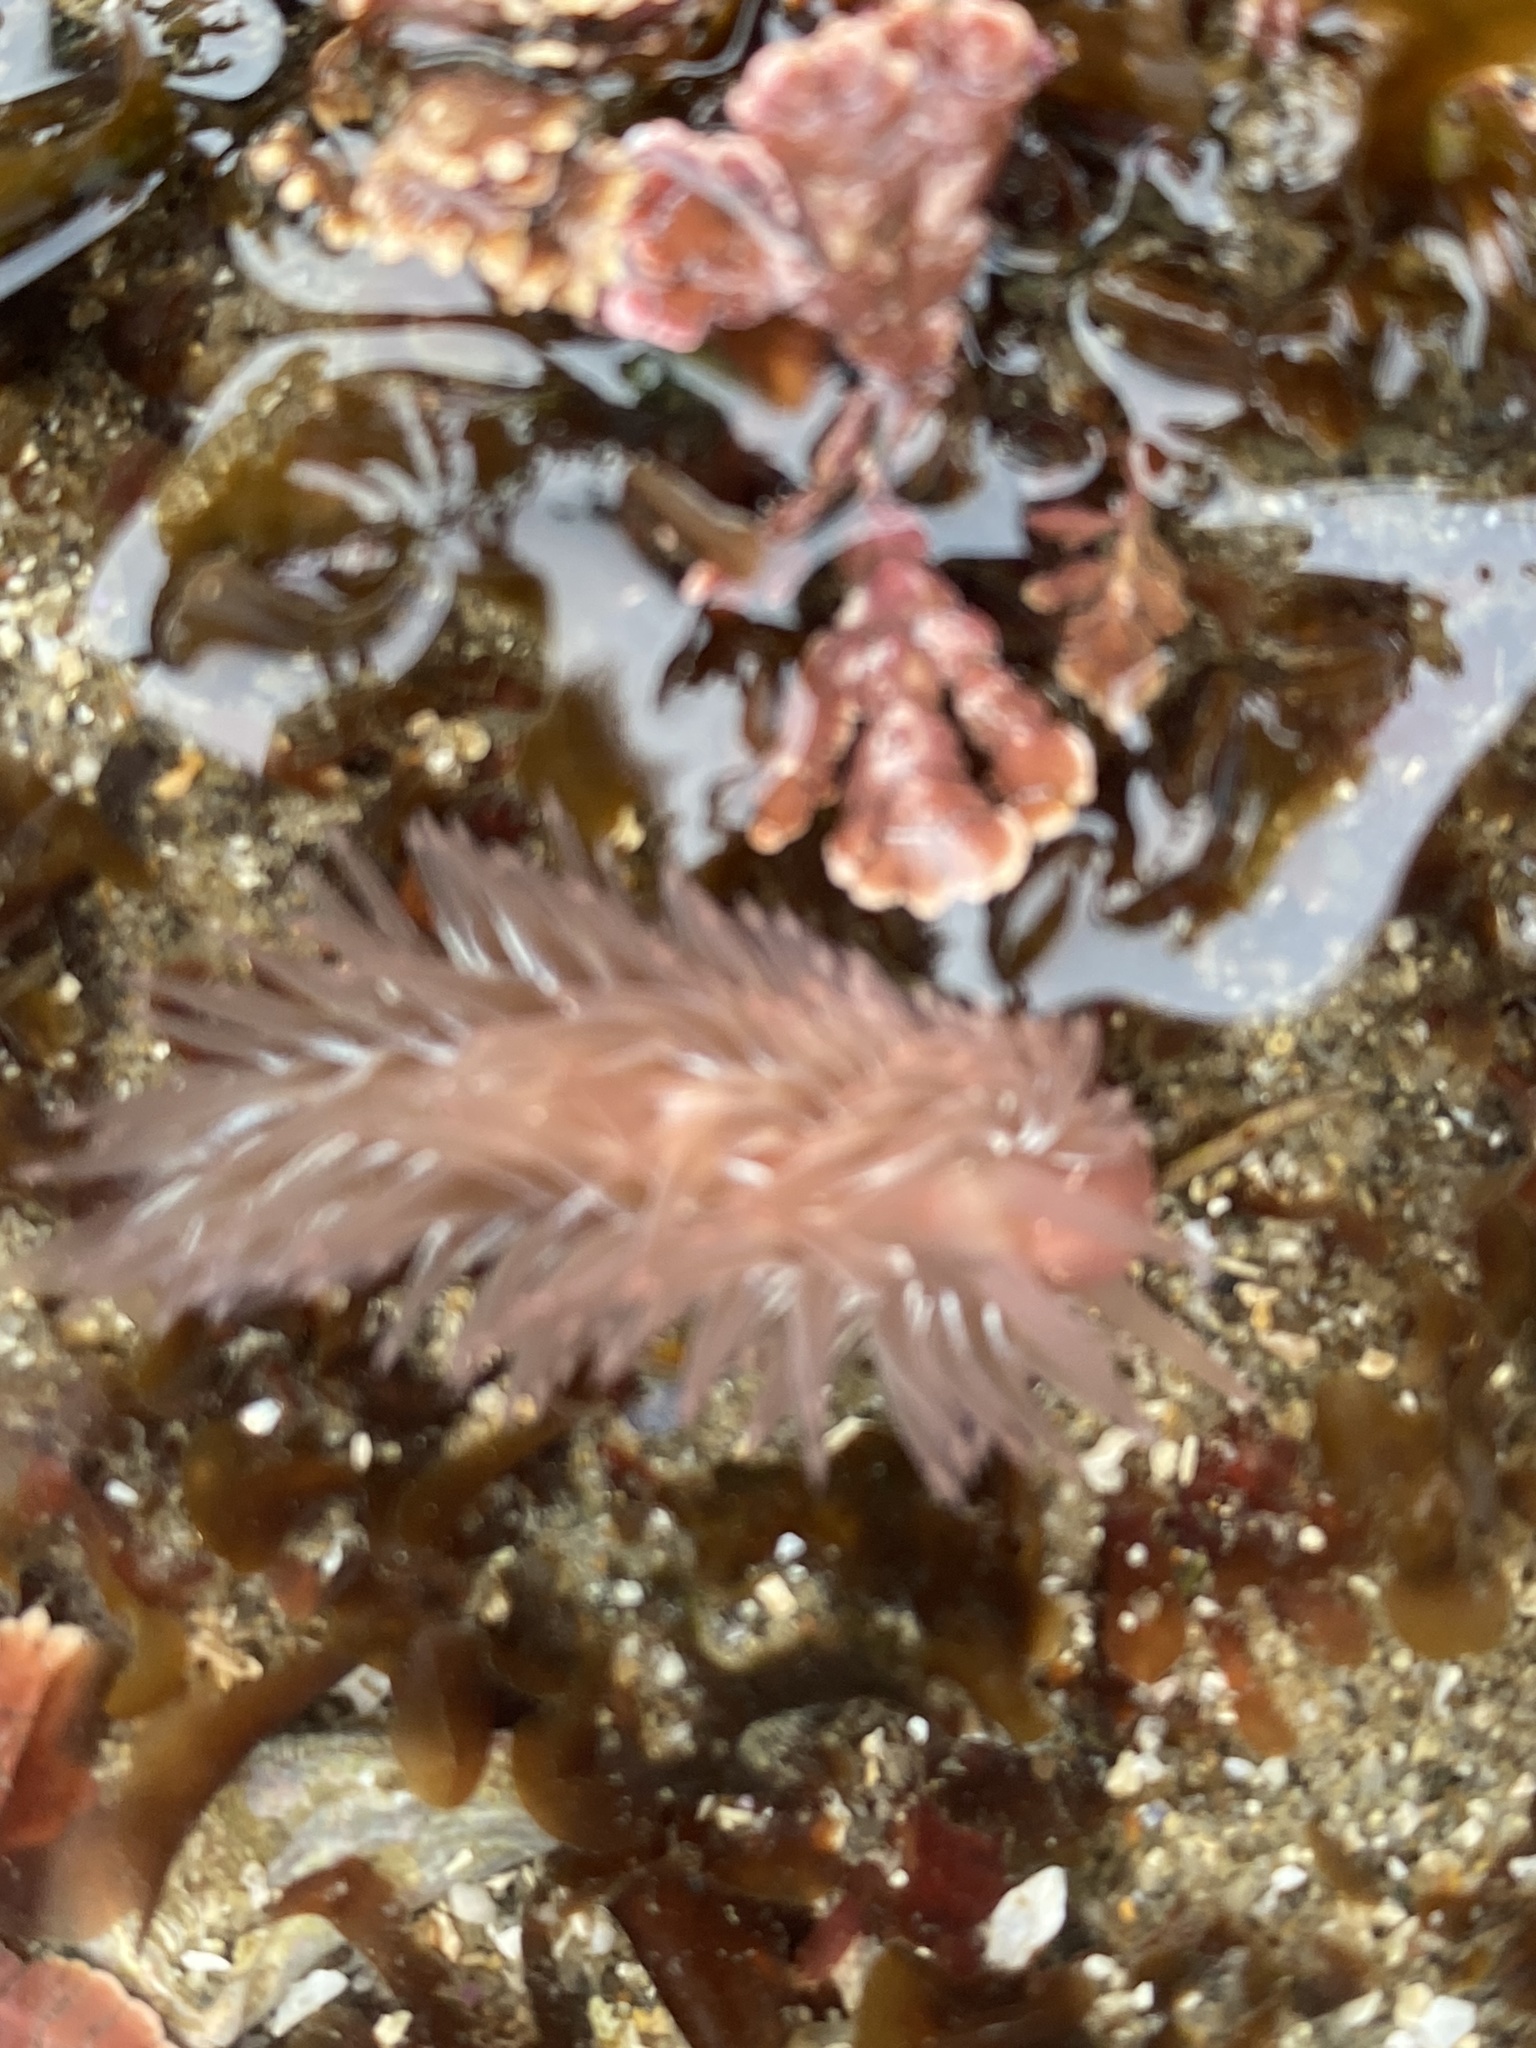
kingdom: Animalia
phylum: Mollusca
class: Gastropoda
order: Nudibranchia
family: Aeolidiidae
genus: Aeolidia
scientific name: Aeolidia loui
